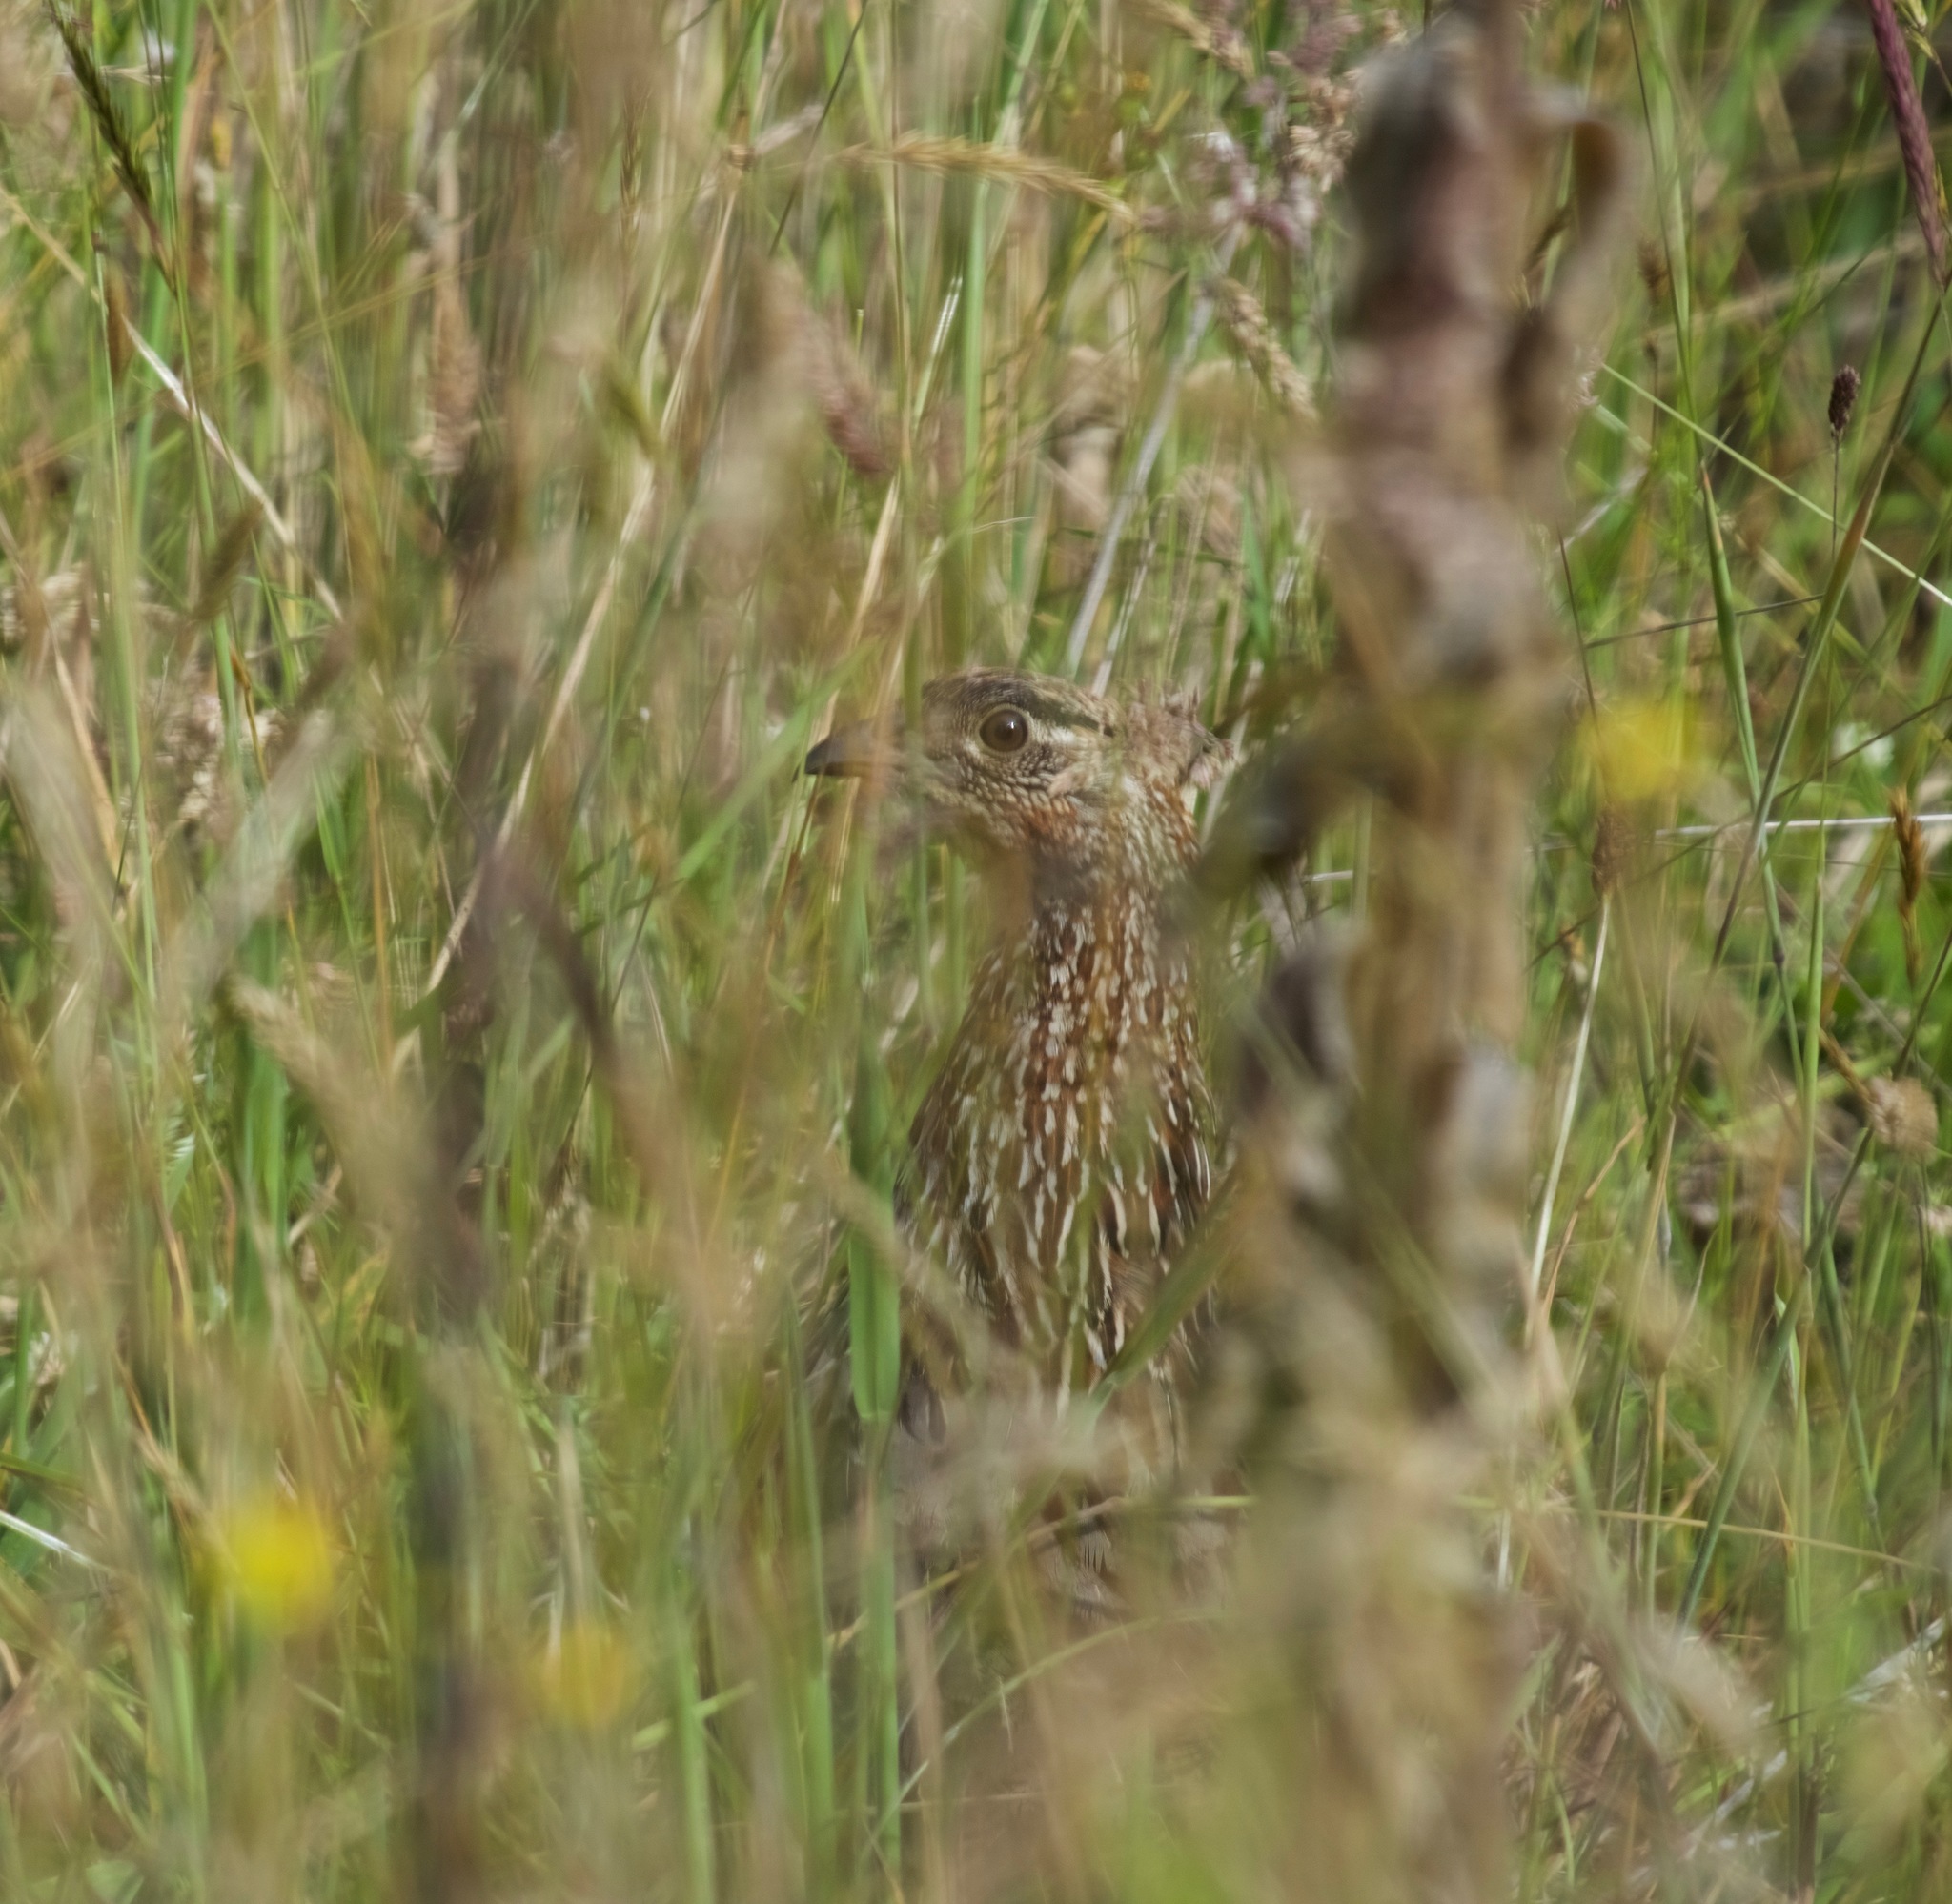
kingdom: Animalia
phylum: Chordata
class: Aves
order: Galliformes
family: Phasianidae
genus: Pternistis
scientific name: Pternistis erckelii
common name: Erckel's francolin
